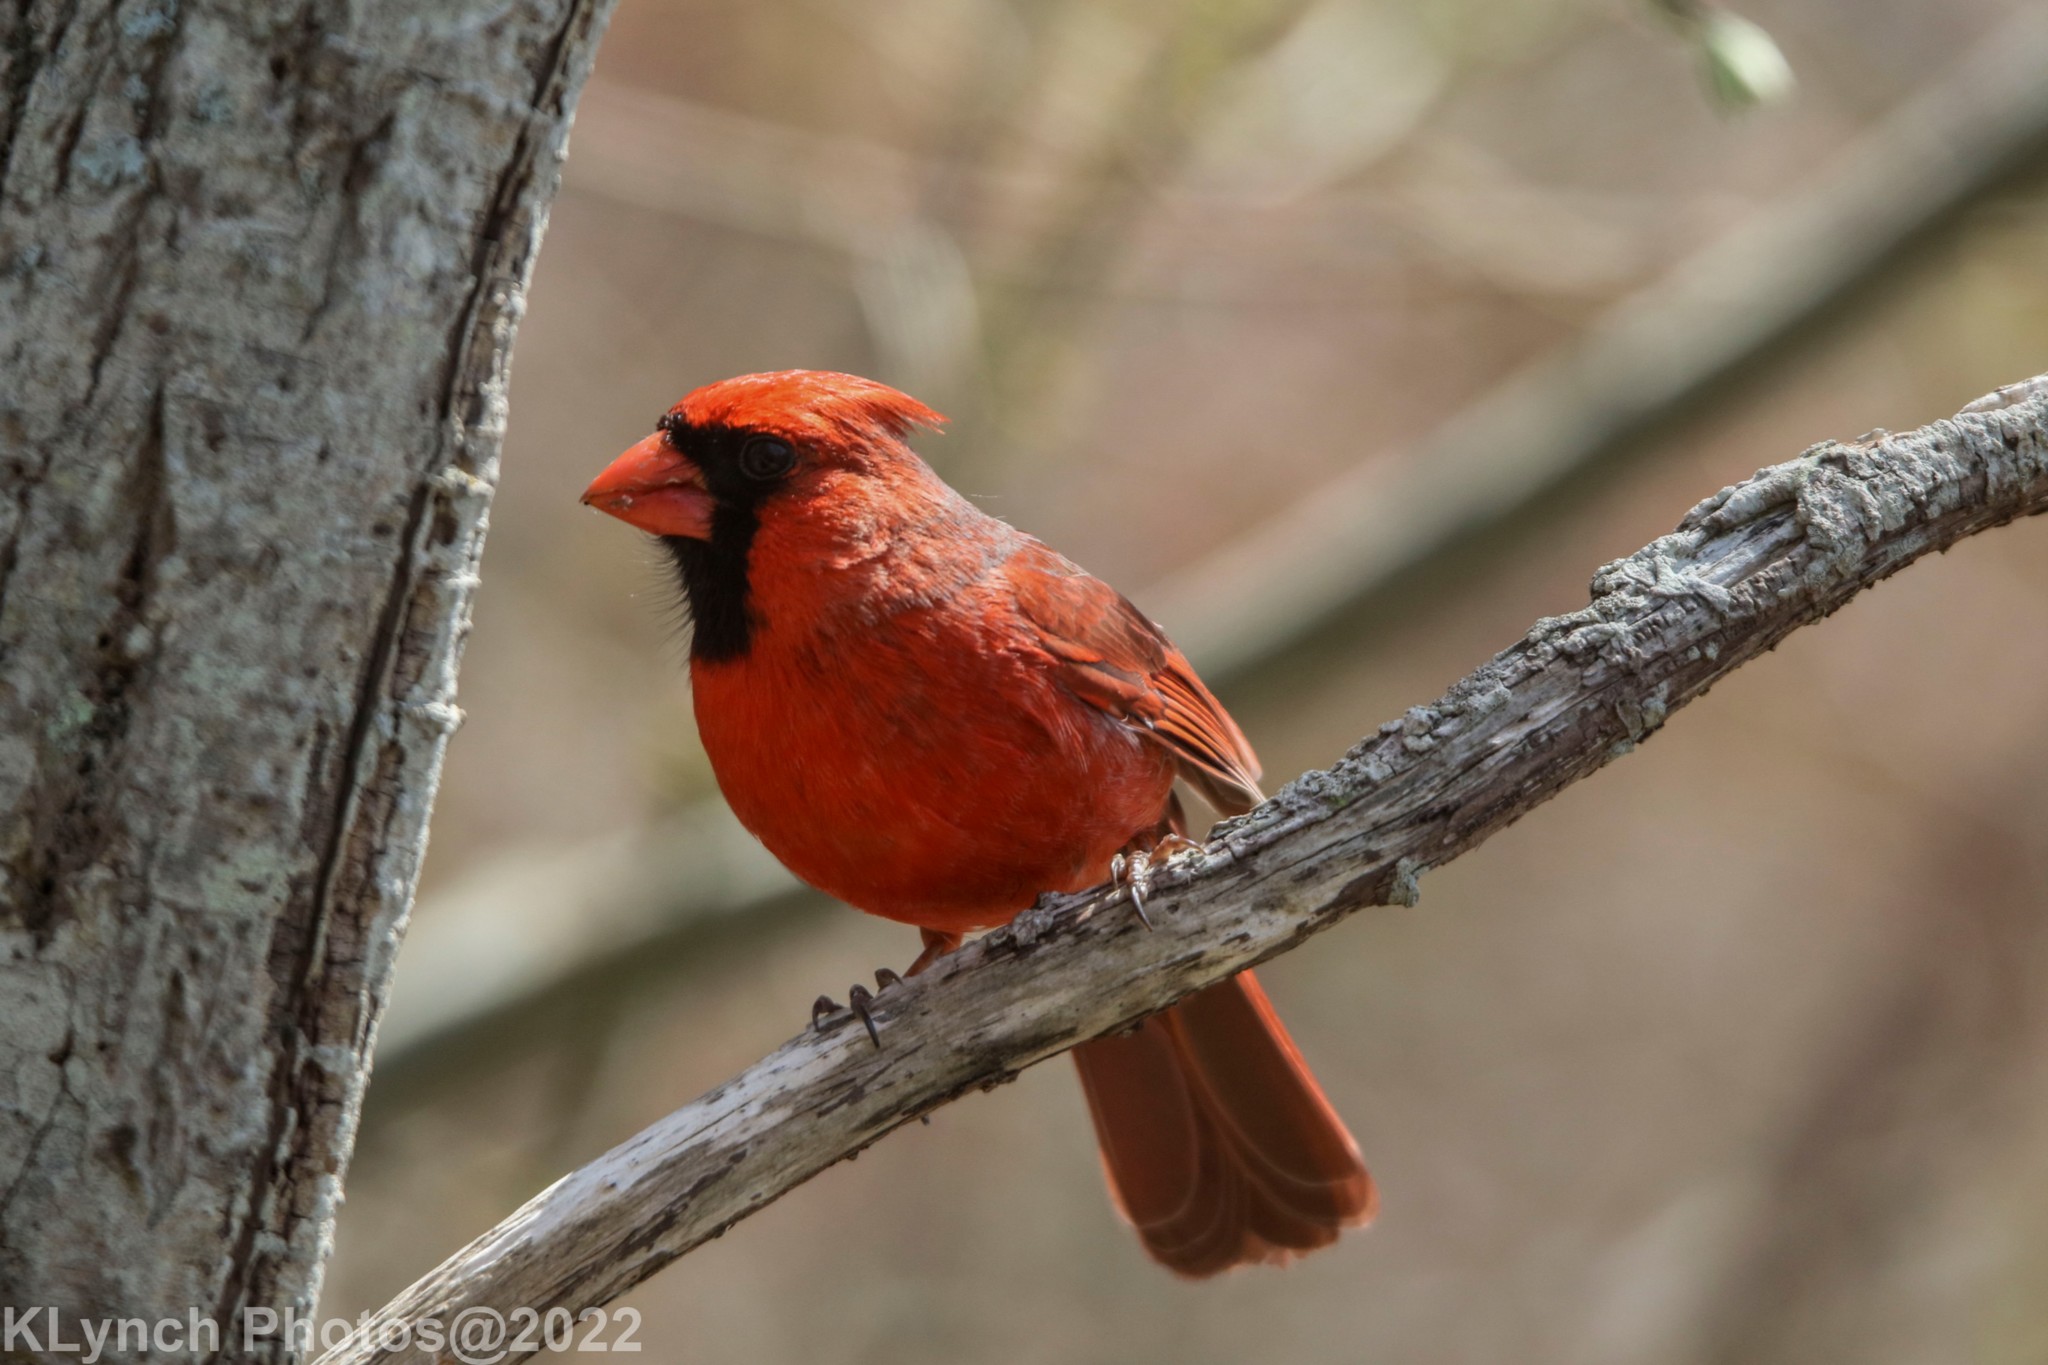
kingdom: Animalia
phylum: Chordata
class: Aves
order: Passeriformes
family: Cardinalidae
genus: Cardinalis
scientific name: Cardinalis cardinalis
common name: Northern cardinal
